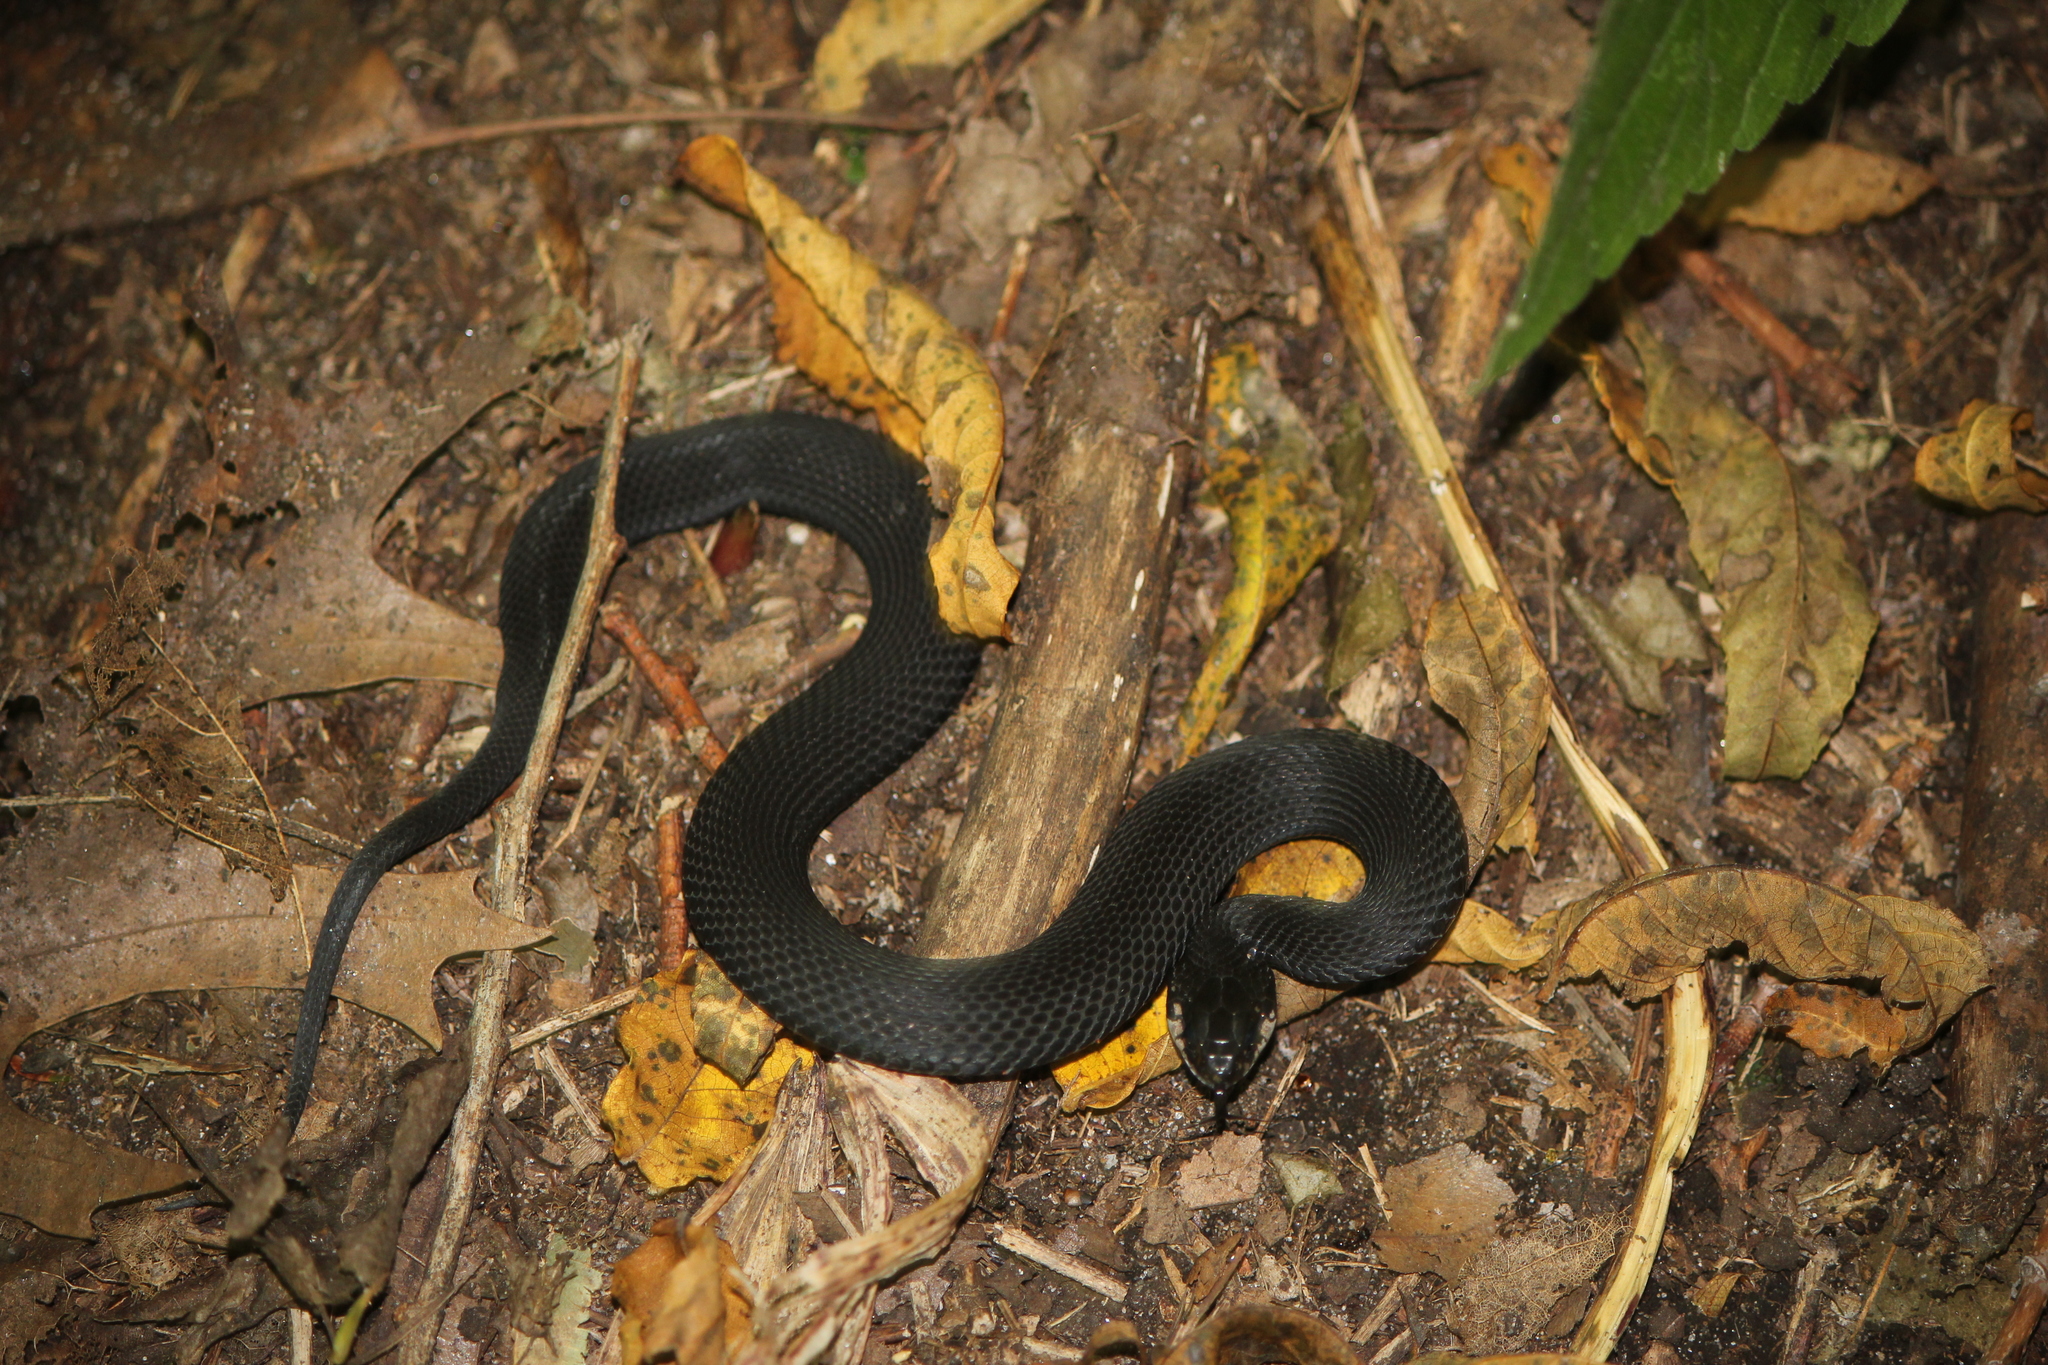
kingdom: Animalia
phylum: Chordata
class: Squamata
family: Colubridae
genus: Thamnophis
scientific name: Thamnophis sirtalis
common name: Common garter snake
